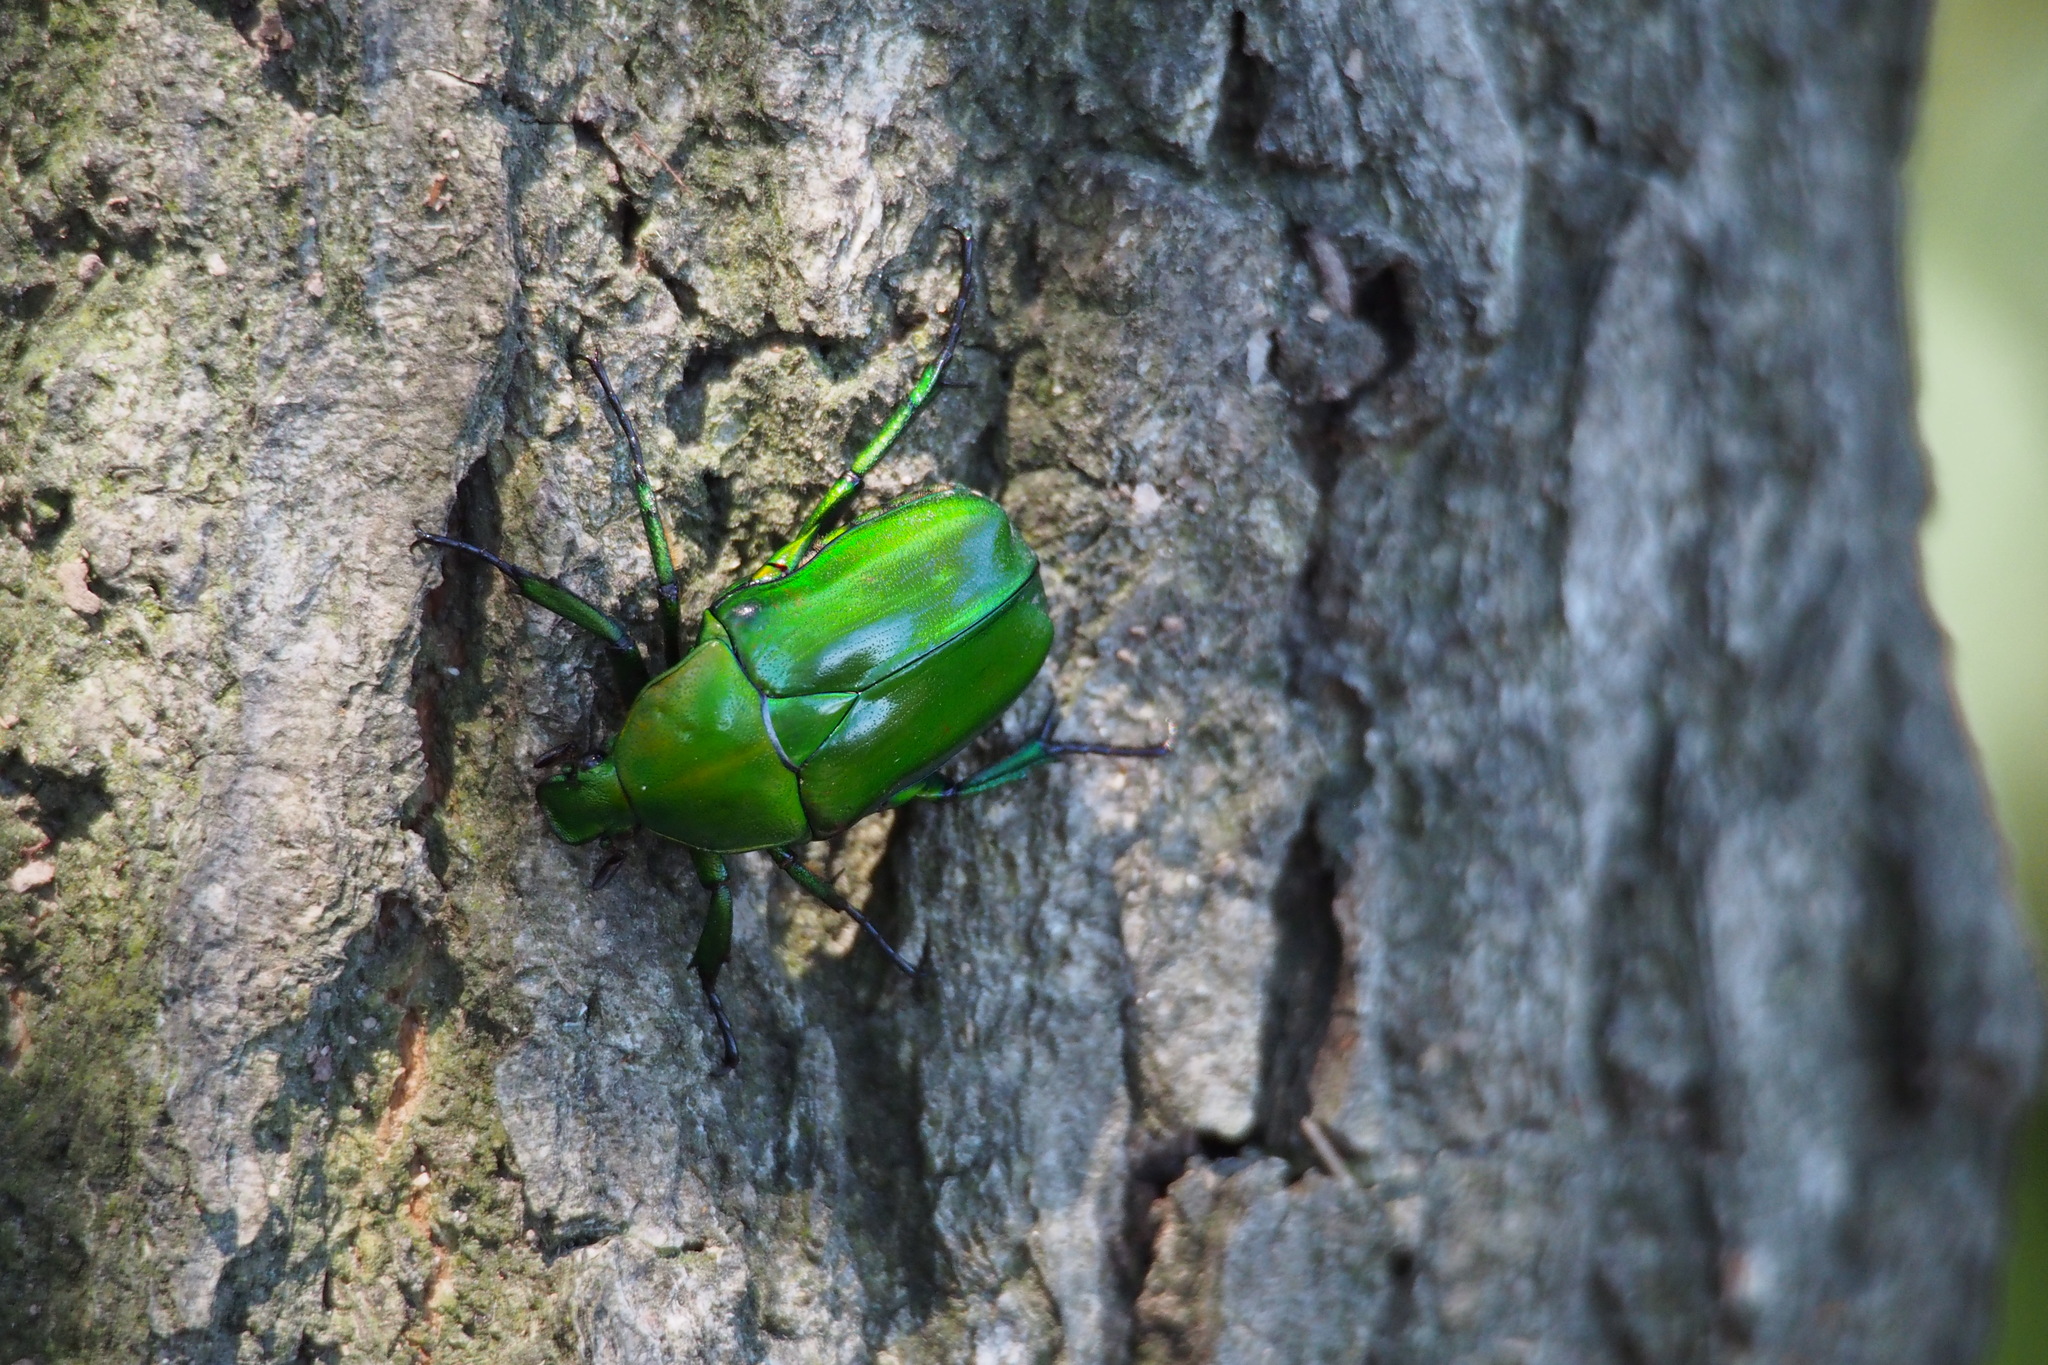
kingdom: Animalia
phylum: Arthropoda
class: Insecta
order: Coleoptera
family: Scarabaeidae
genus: Rhomborhina
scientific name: Rhomborhina unicolor
